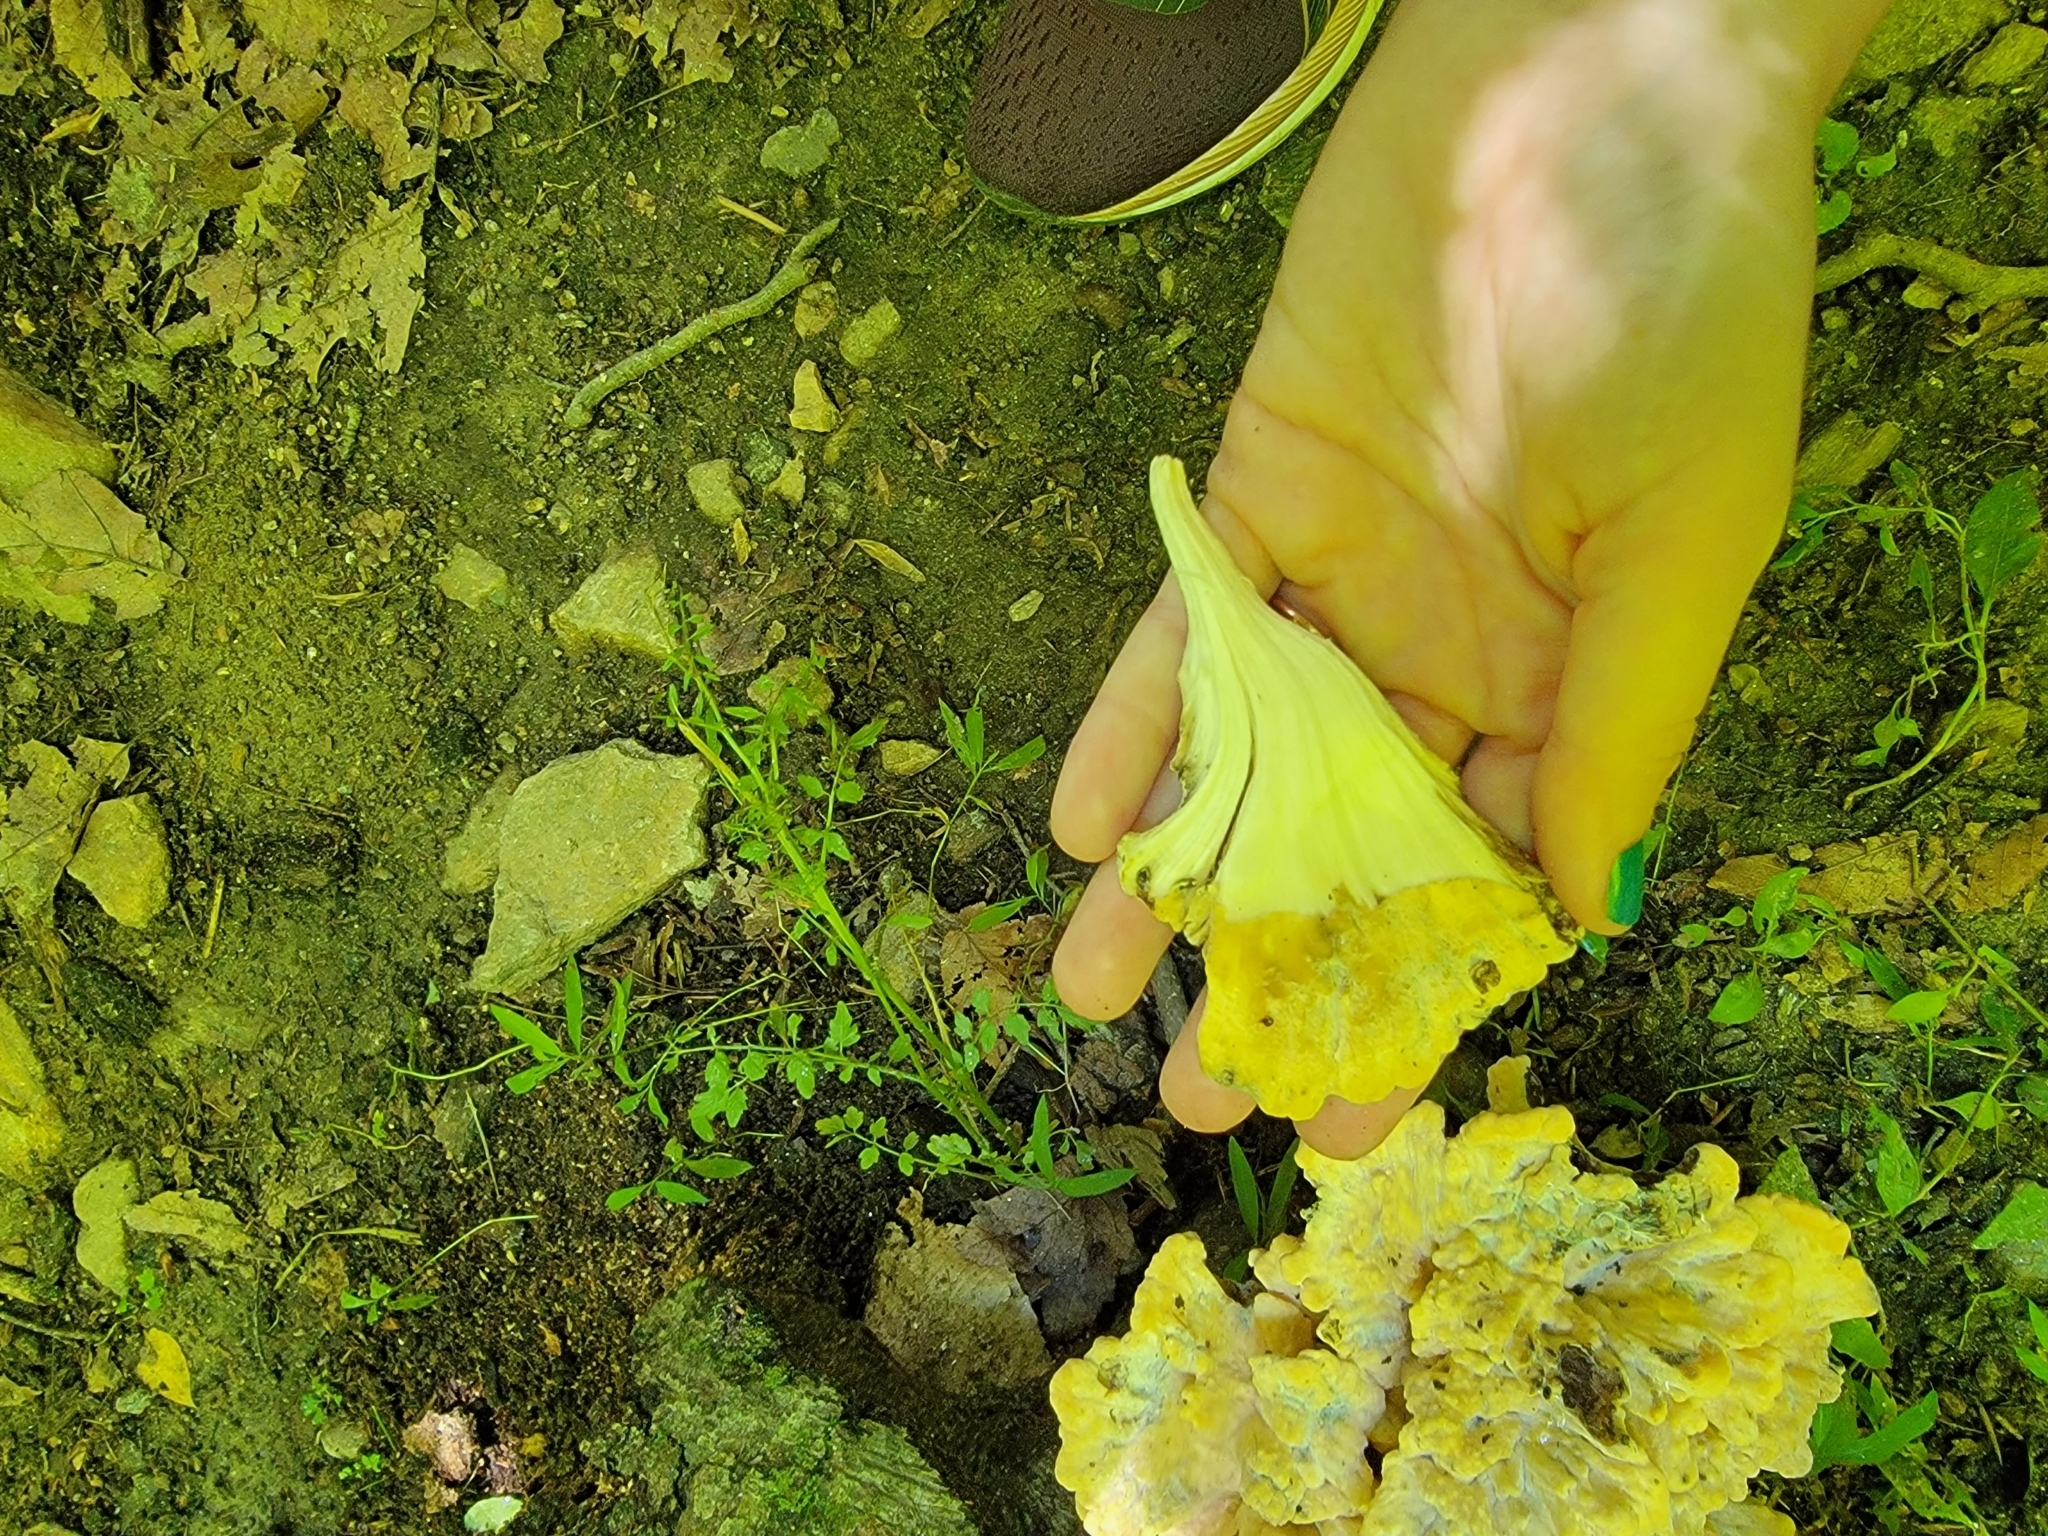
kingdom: Fungi
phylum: Basidiomycota
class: Agaricomycetes
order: Polyporales
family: Meripilaceae
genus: Meripilus
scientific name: Meripilus sumstinei
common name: Black-staining polypore
